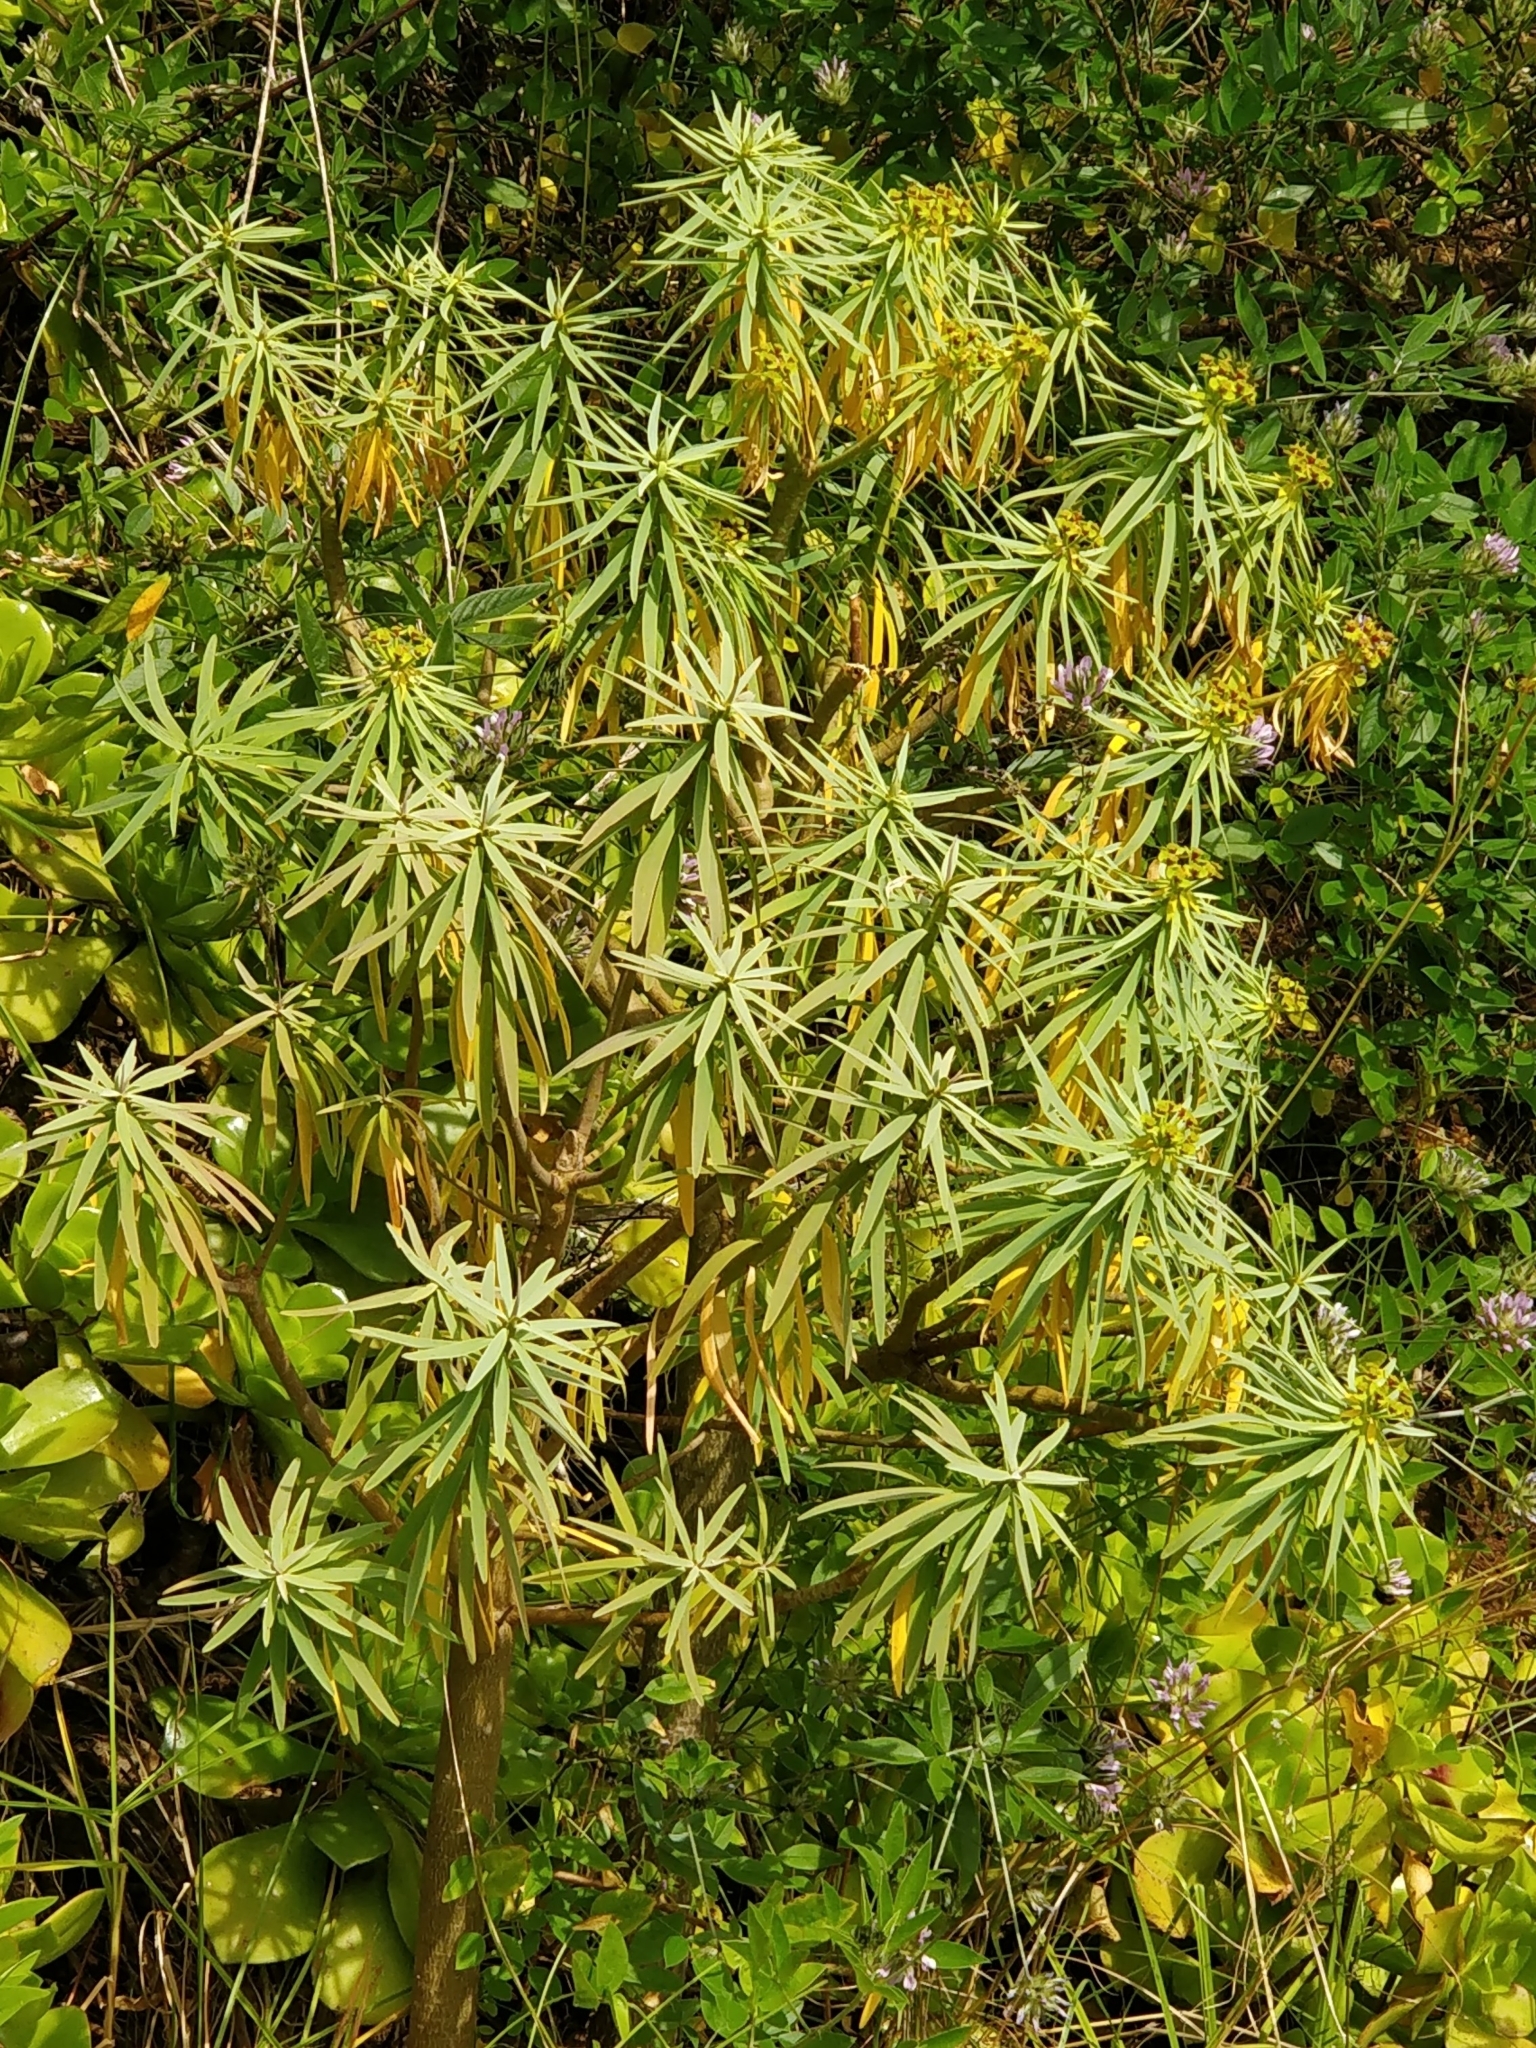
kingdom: Plantae
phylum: Tracheophyta
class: Magnoliopsida
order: Malpighiales
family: Euphorbiaceae
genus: Euphorbia
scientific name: Euphorbia piscatoria
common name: Fish-stunning spurge
